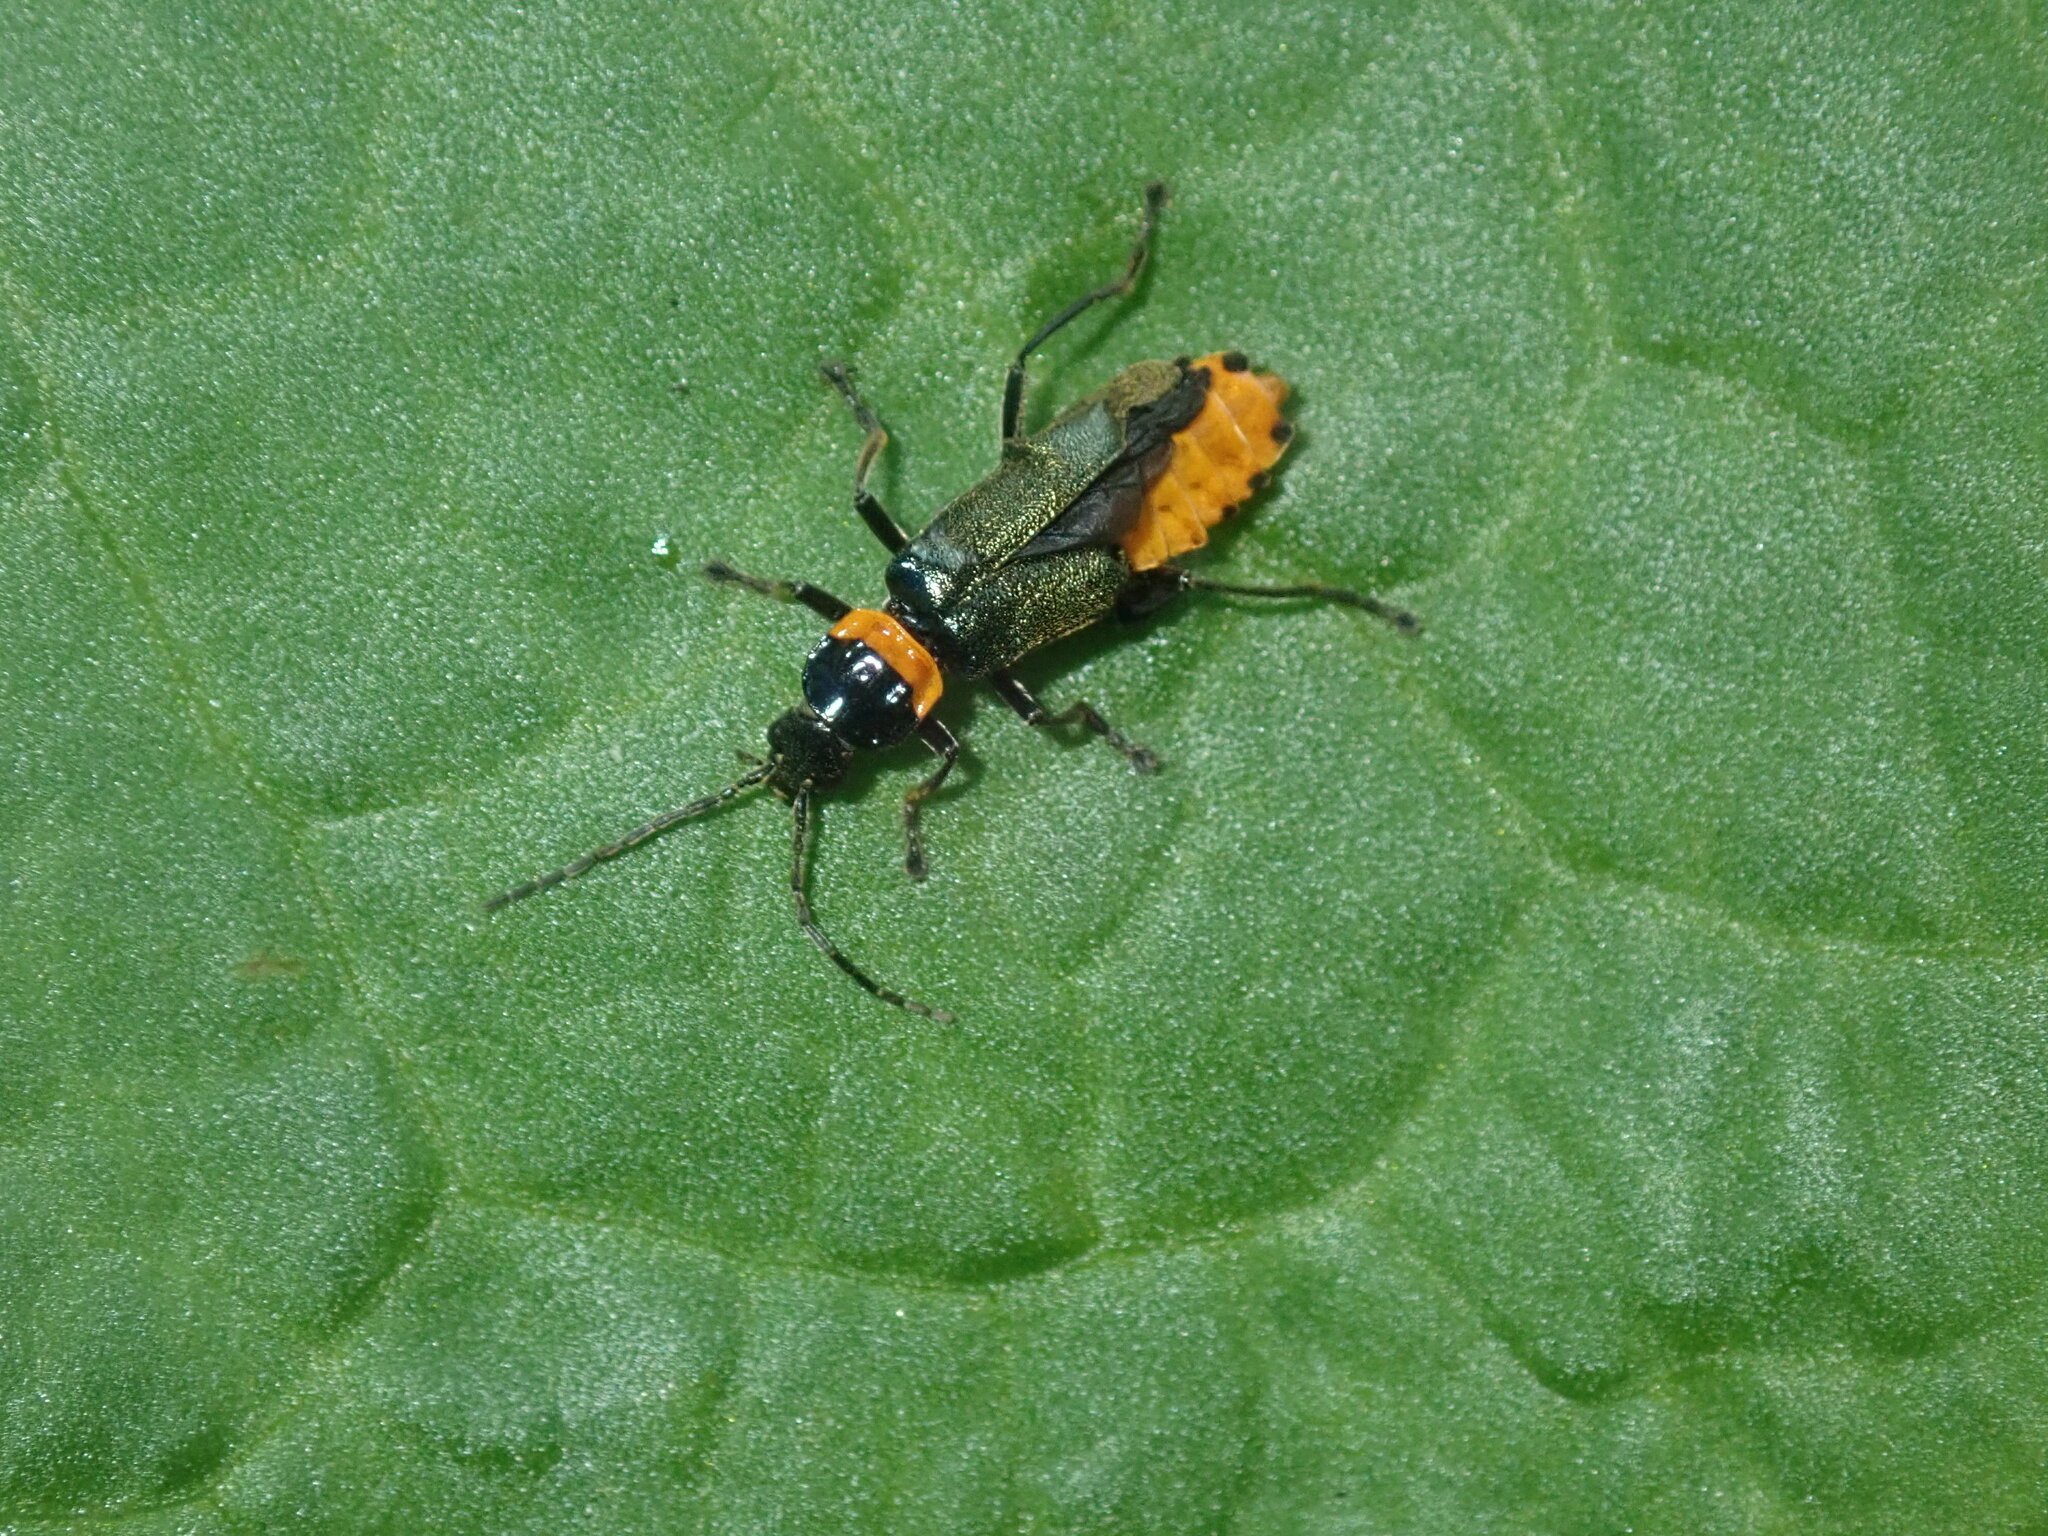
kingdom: Animalia
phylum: Arthropoda
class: Insecta
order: Coleoptera
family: Cantharidae
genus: Chauliognathus
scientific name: Chauliognathus
